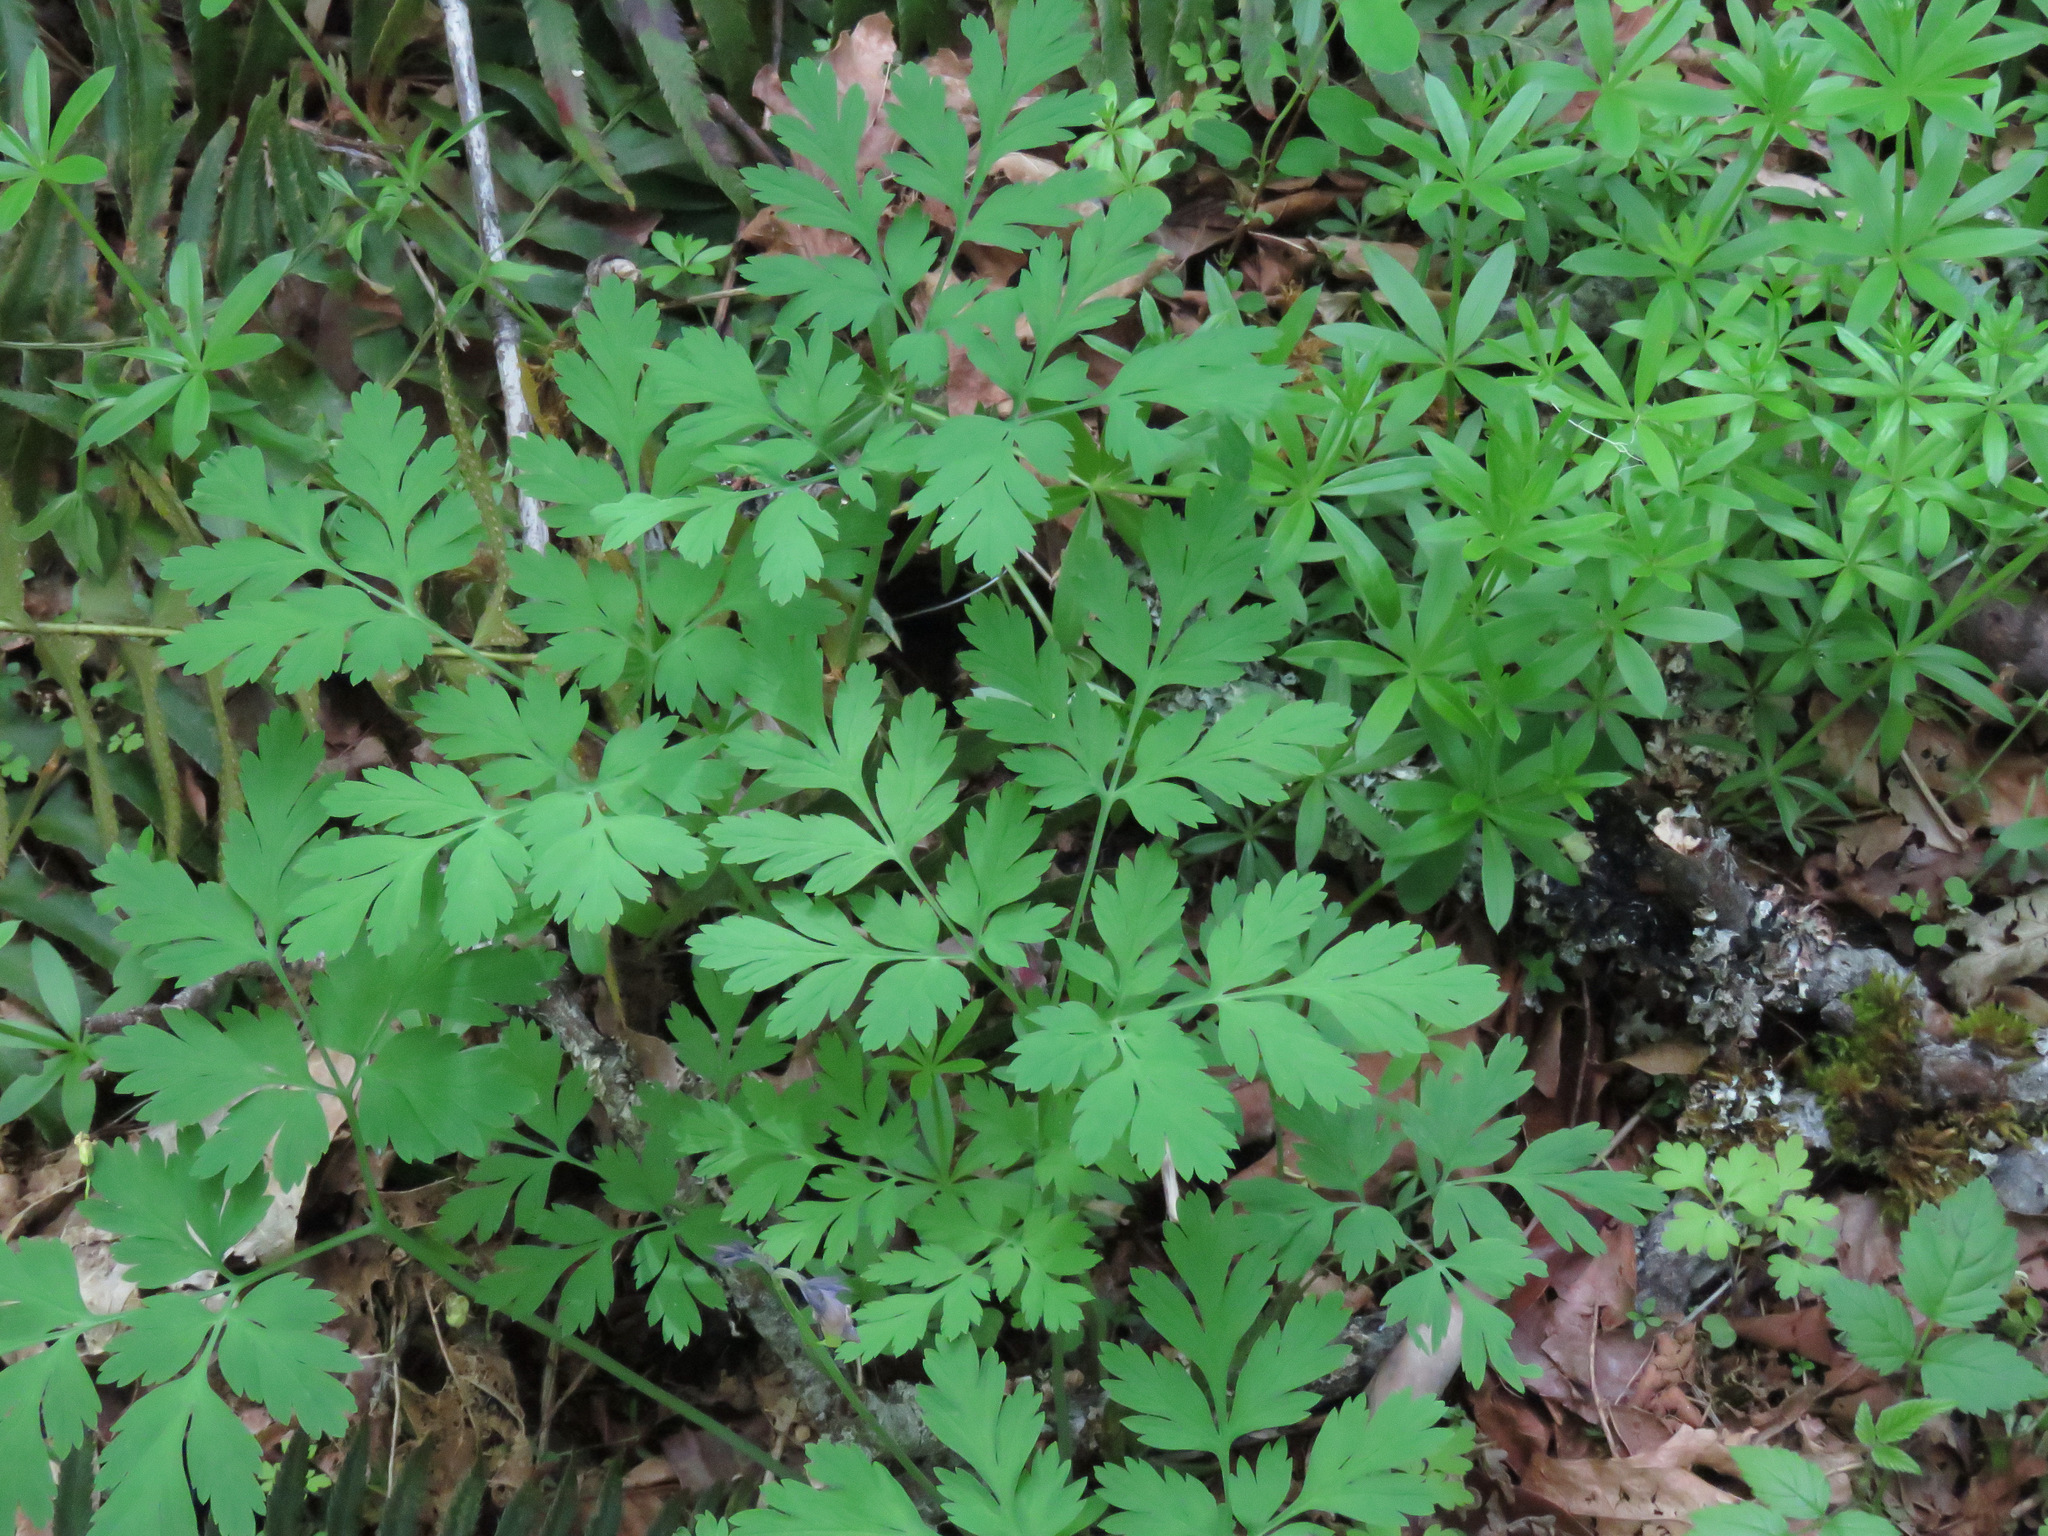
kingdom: Plantae
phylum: Tracheophyta
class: Magnoliopsida
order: Ranunculales
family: Papaveraceae
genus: Dicentra
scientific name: Dicentra formosa
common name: Bleeding-heart
